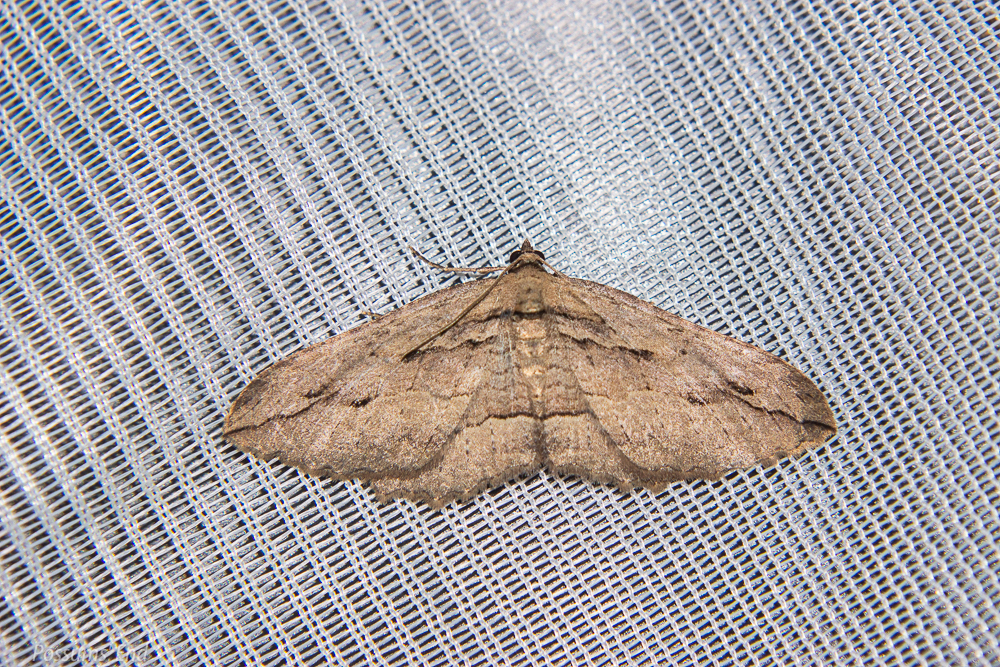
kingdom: Animalia
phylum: Arthropoda
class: Insecta
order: Lepidoptera
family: Geometridae
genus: Austrocidaria
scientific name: Austrocidaria gobiata
